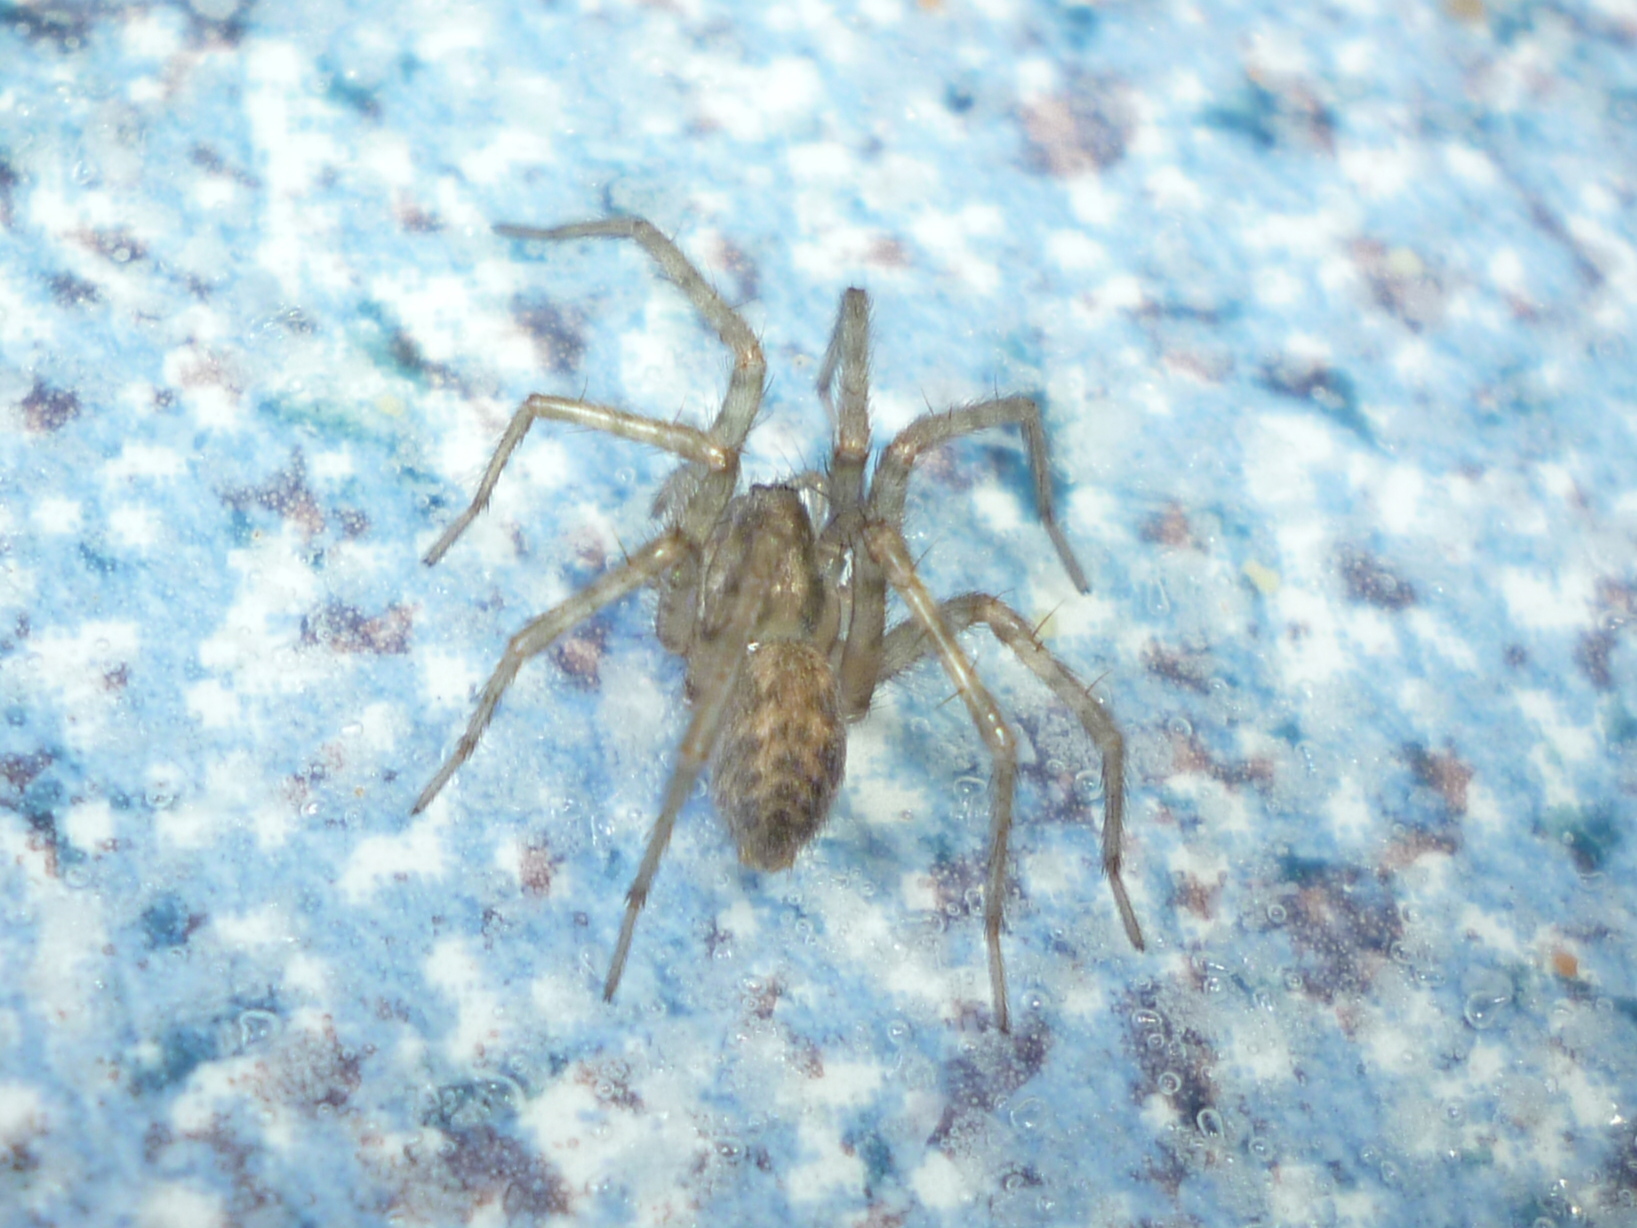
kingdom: Animalia
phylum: Arthropoda
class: Arachnida
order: Araneae
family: Agelenidae
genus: Tegenaria
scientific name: Tegenaria domestica
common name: Barn funnel weaver
